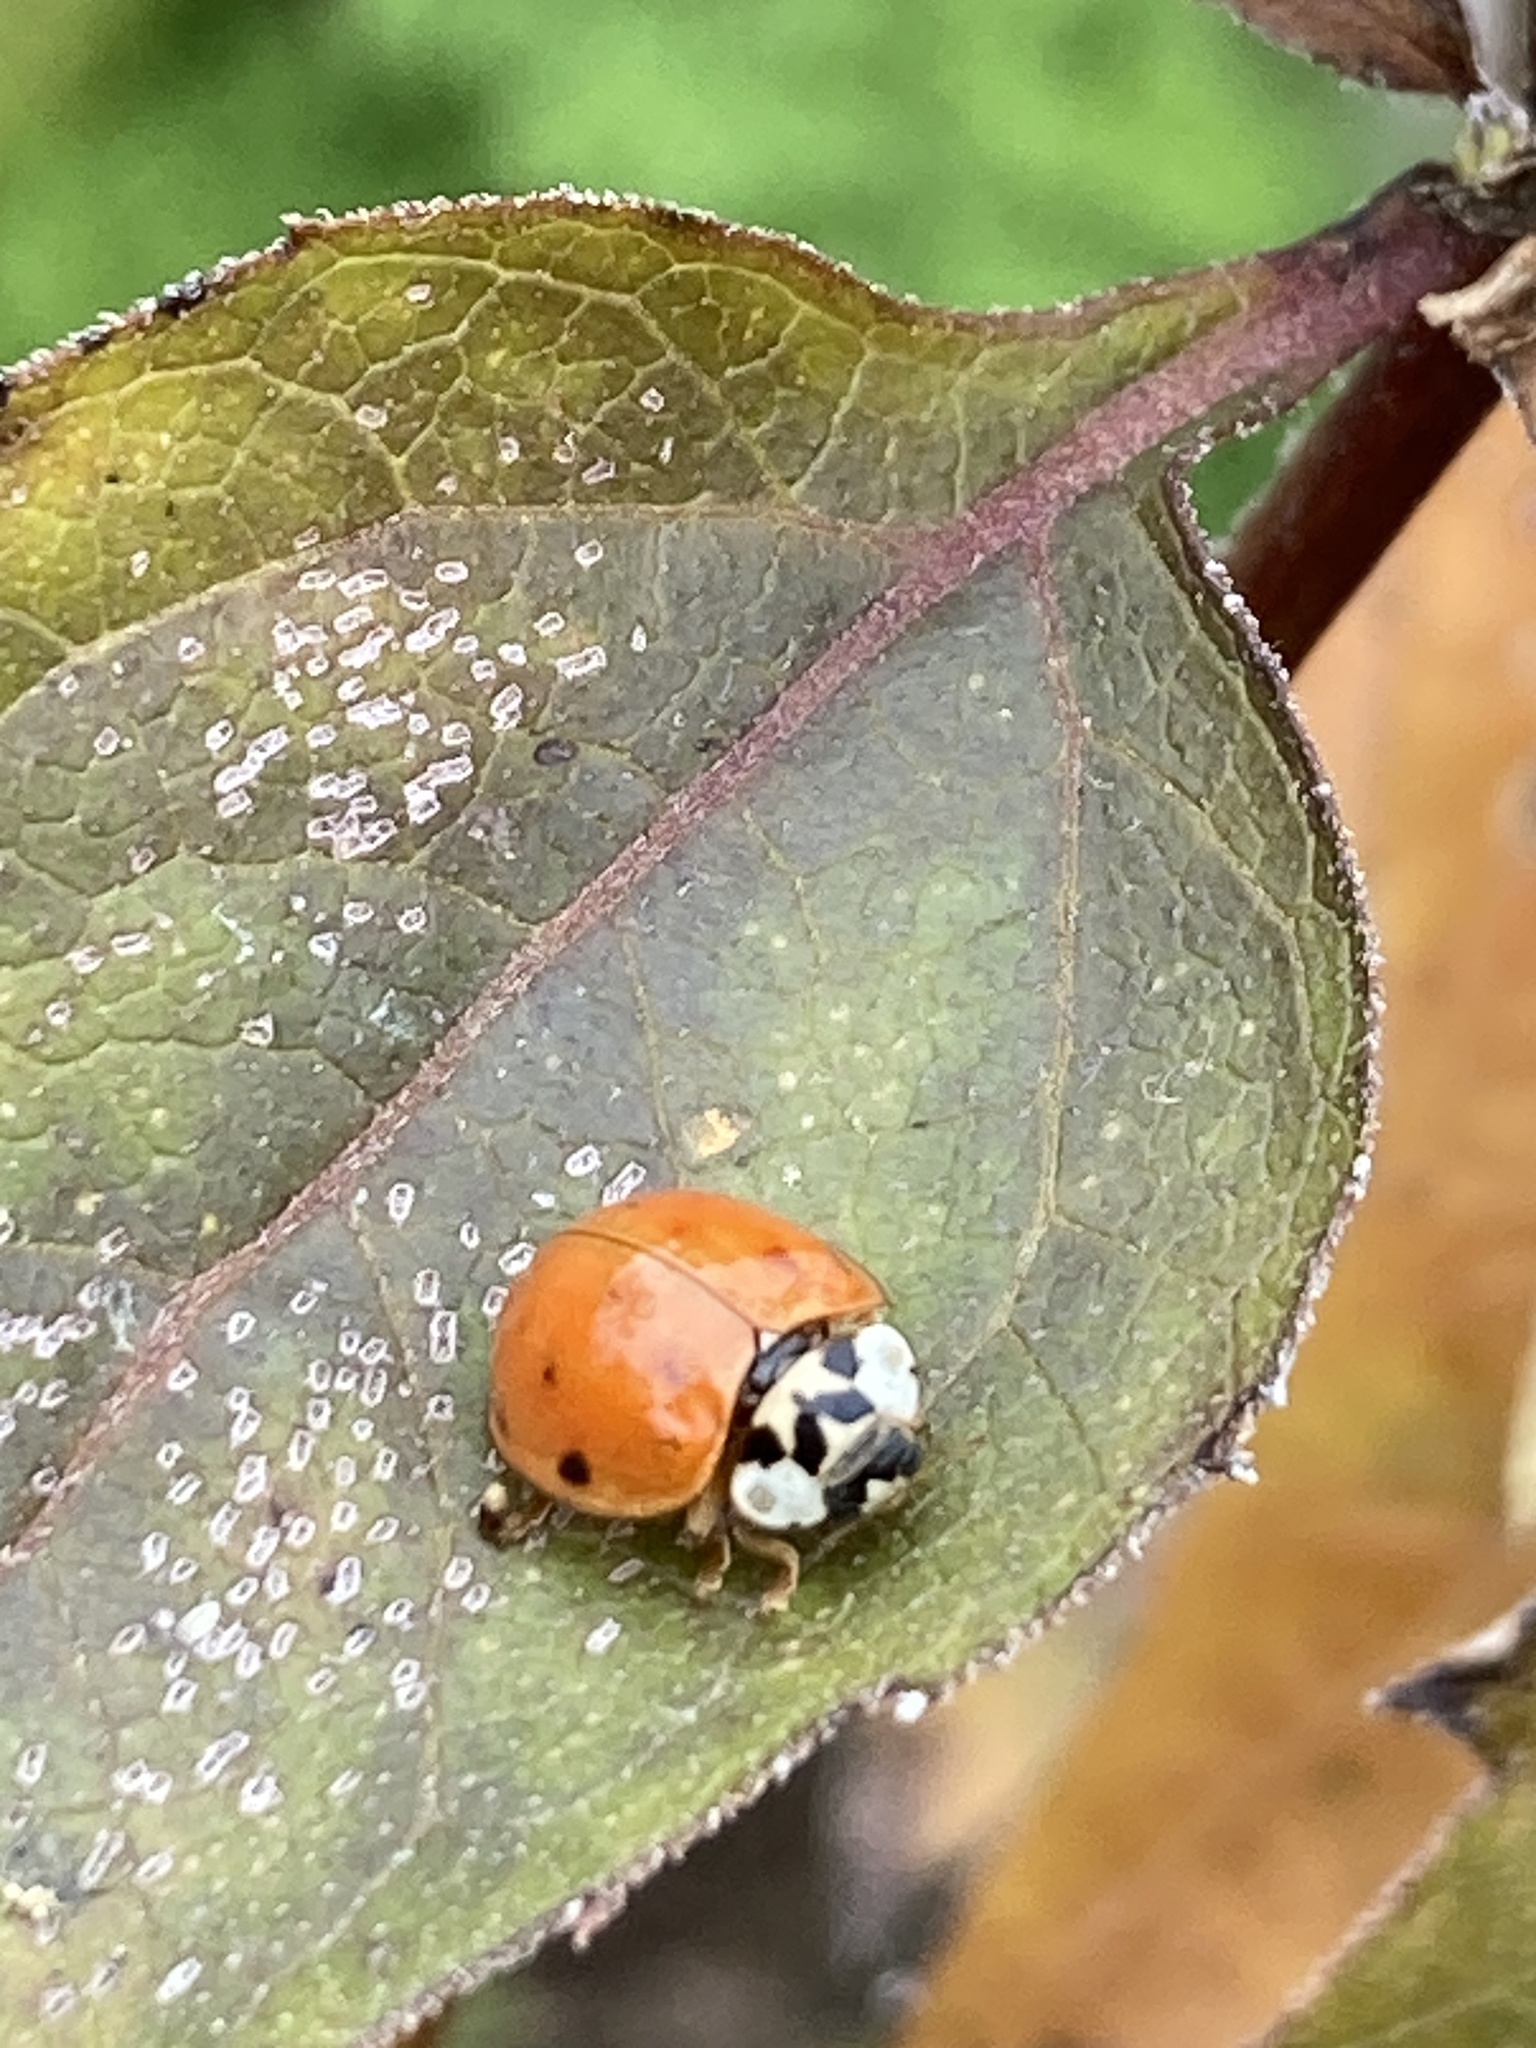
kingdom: Animalia
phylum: Arthropoda
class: Insecta
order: Coleoptera
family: Coccinellidae
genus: Harmonia
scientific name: Harmonia axyridis
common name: Harlequin ladybird
